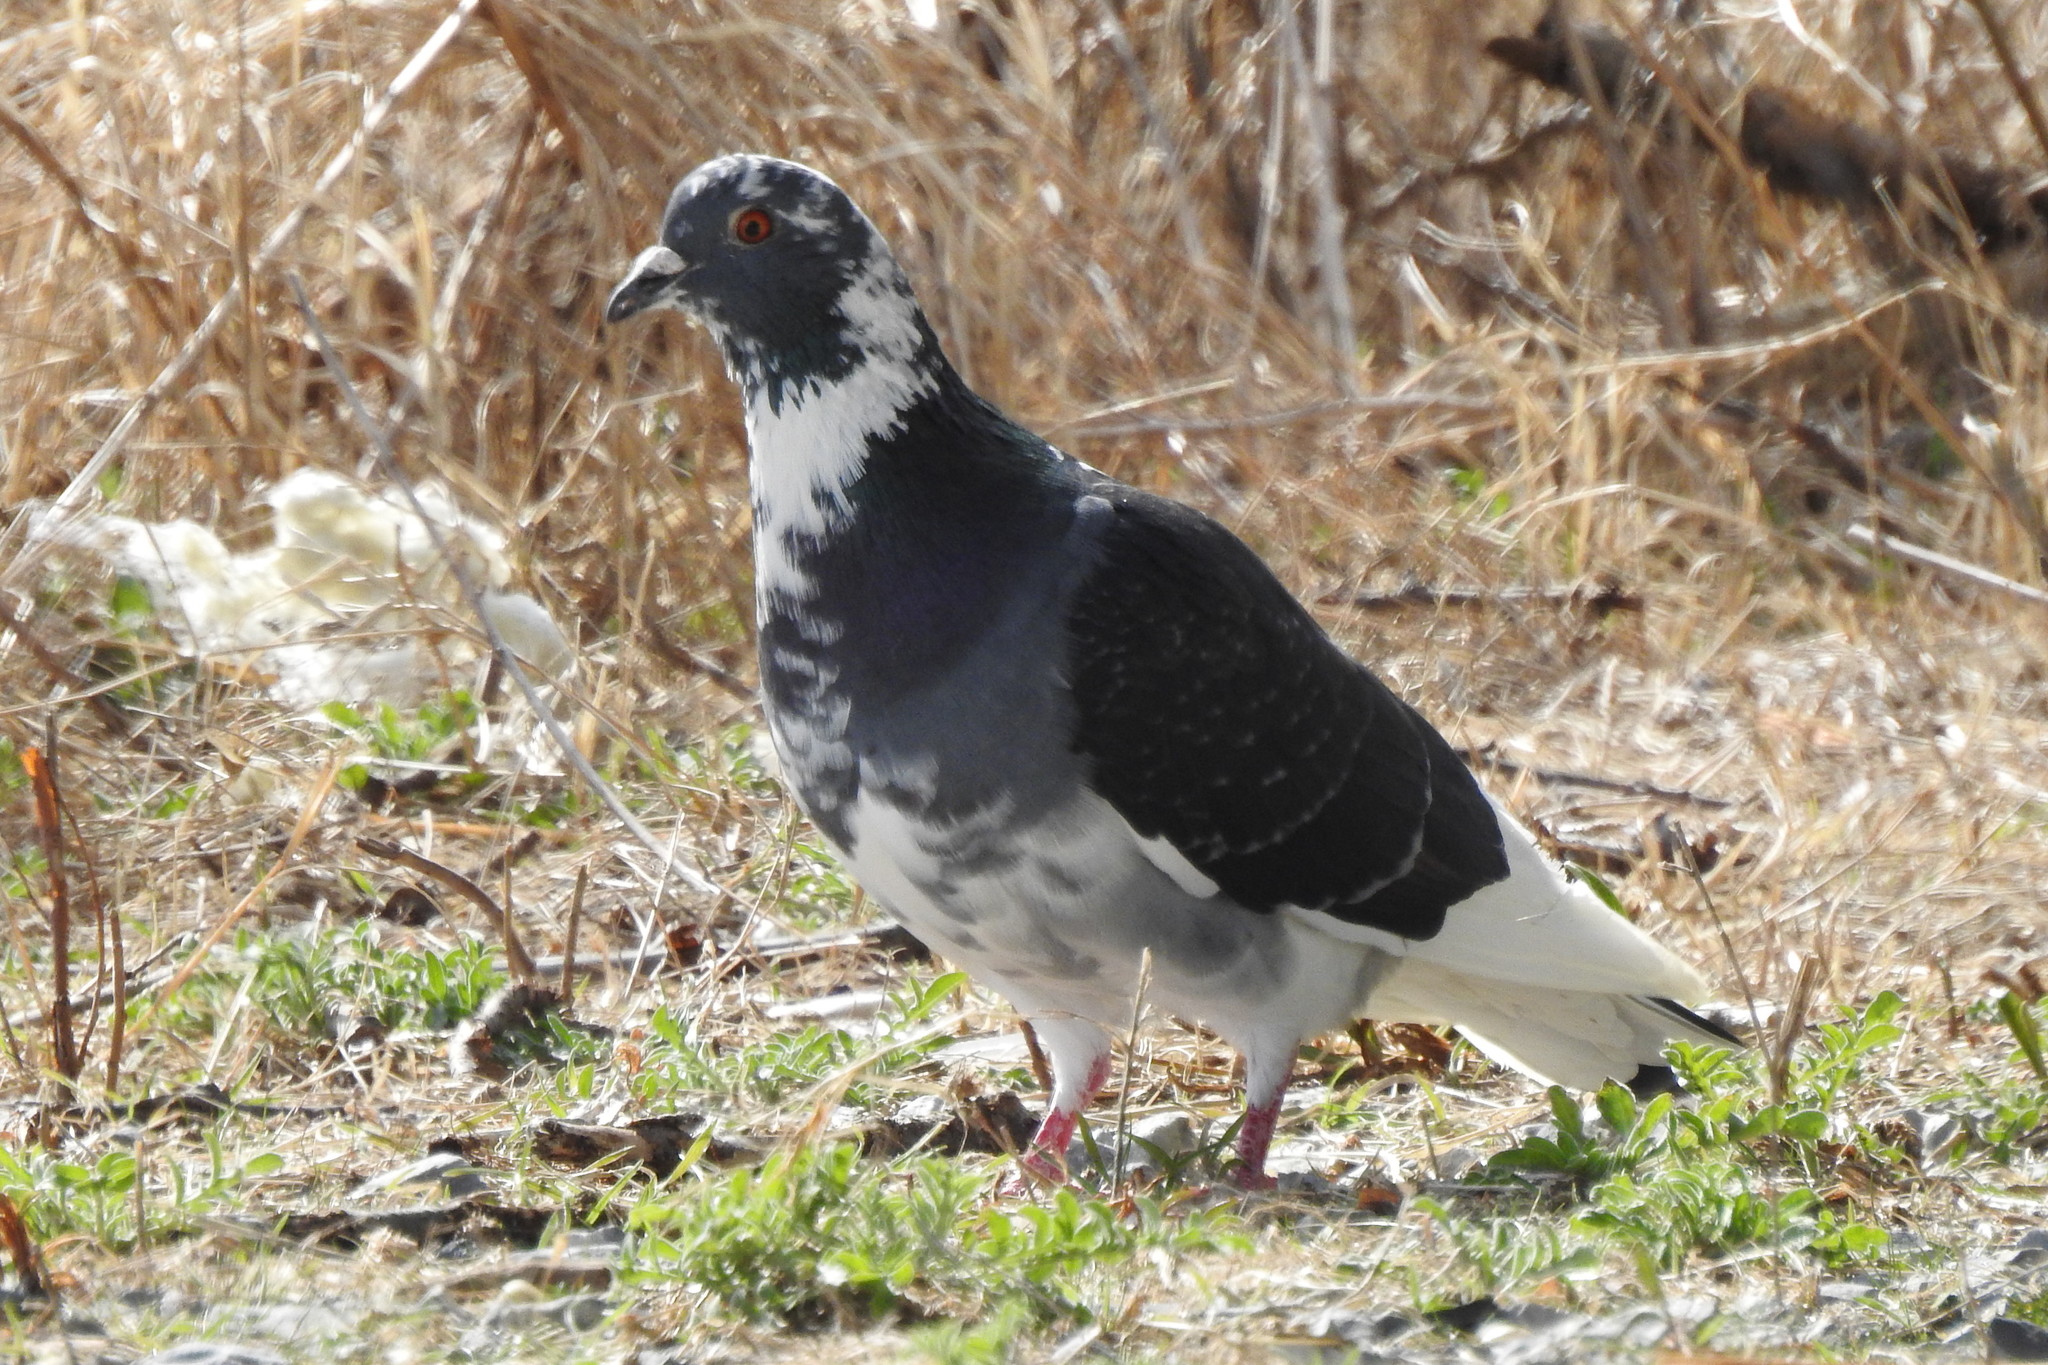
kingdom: Animalia
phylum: Chordata
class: Aves
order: Columbiformes
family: Columbidae
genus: Columba
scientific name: Columba livia
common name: Rock pigeon
